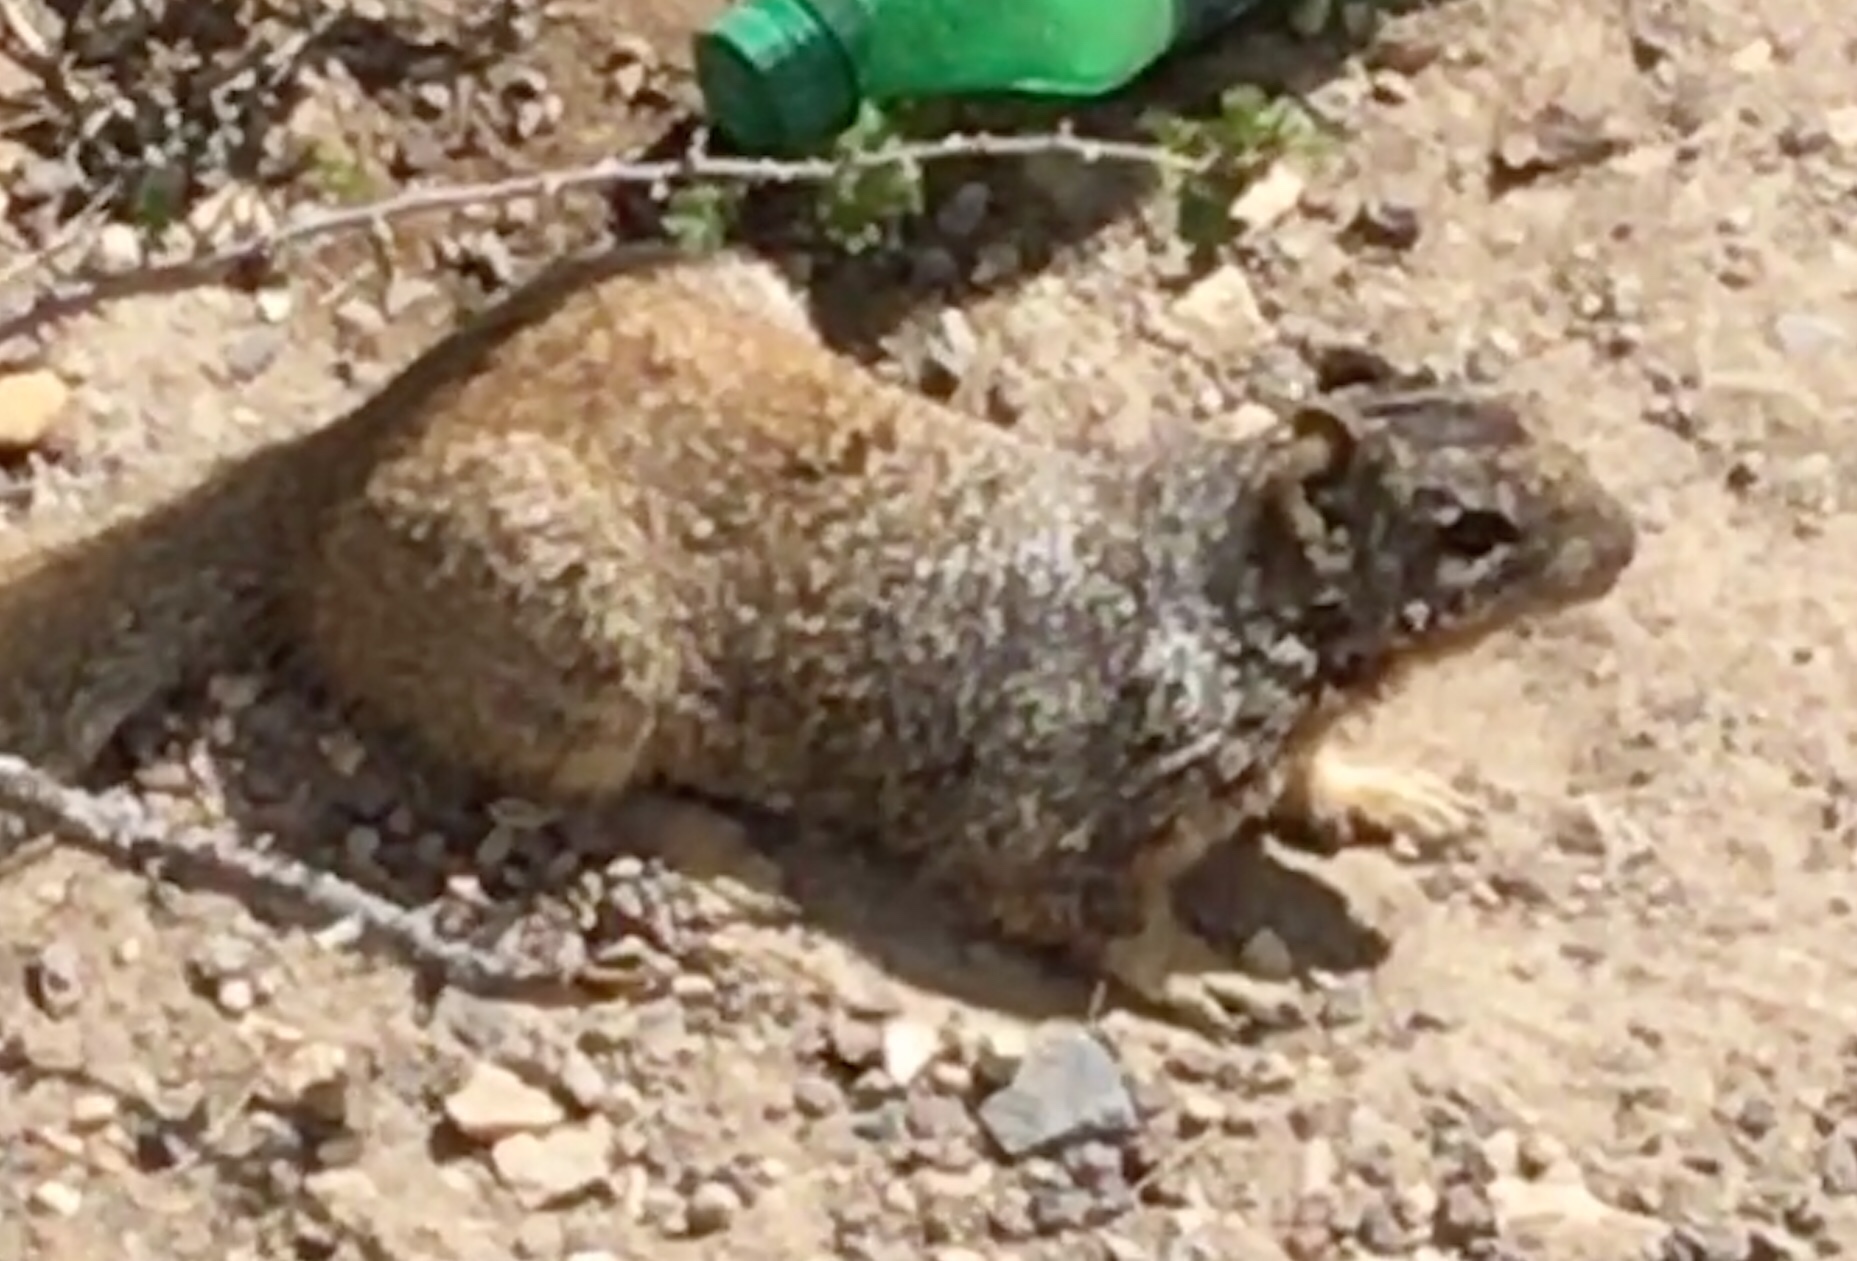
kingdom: Animalia
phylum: Chordata
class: Mammalia
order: Rodentia
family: Sciuridae
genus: Otospermophilus
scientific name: Otospermophilus variegatus
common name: Rock squirrel
